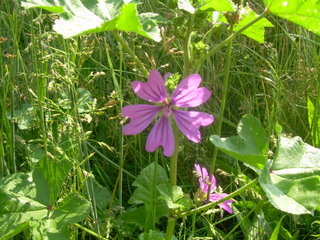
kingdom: Plantae
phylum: Tracheophyta
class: Magnoliopsida
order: Malvales
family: Malvaceae
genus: Malva
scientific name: Malva sylvestris
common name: Common mallow
